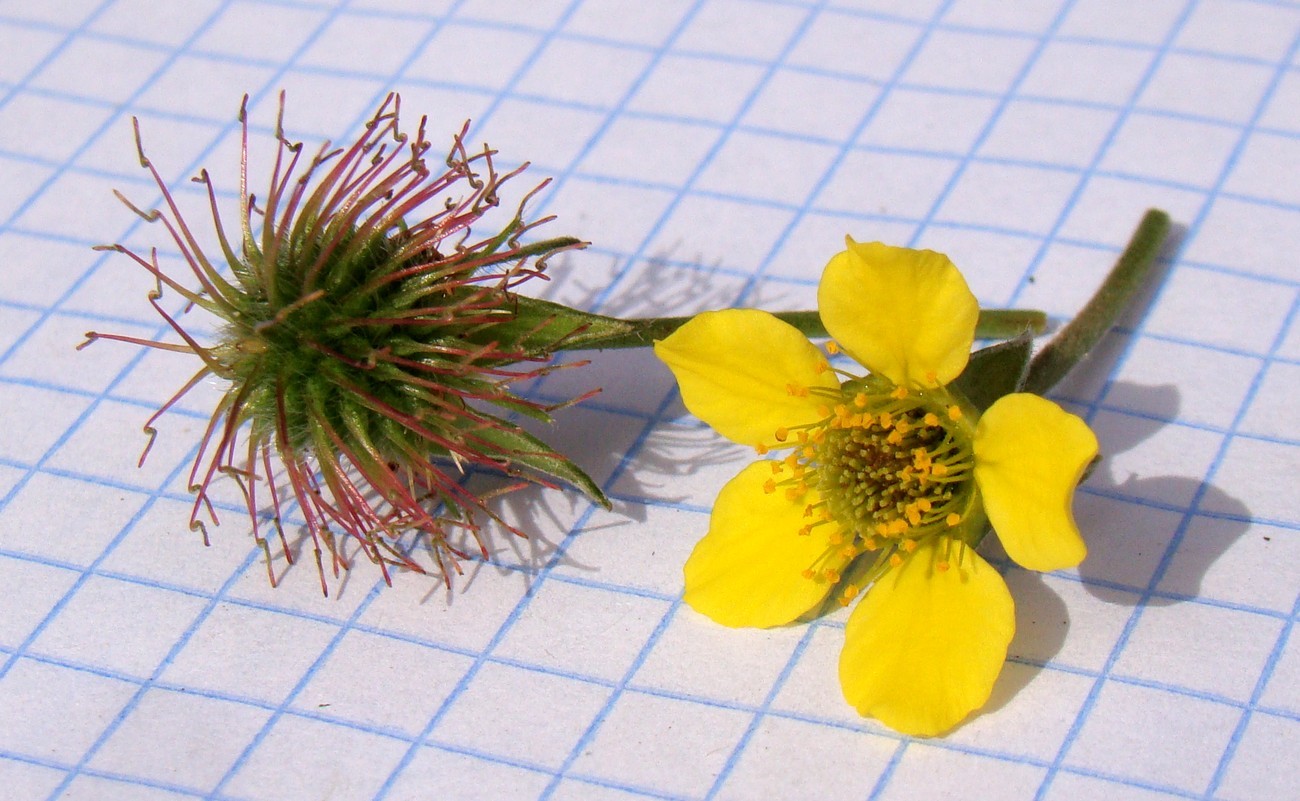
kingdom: Plantae
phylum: Tracheophyta
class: Magnoliopsida
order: Rosales
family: Rosaceae
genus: Geum
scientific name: Geum urbanum
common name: Wood avens
